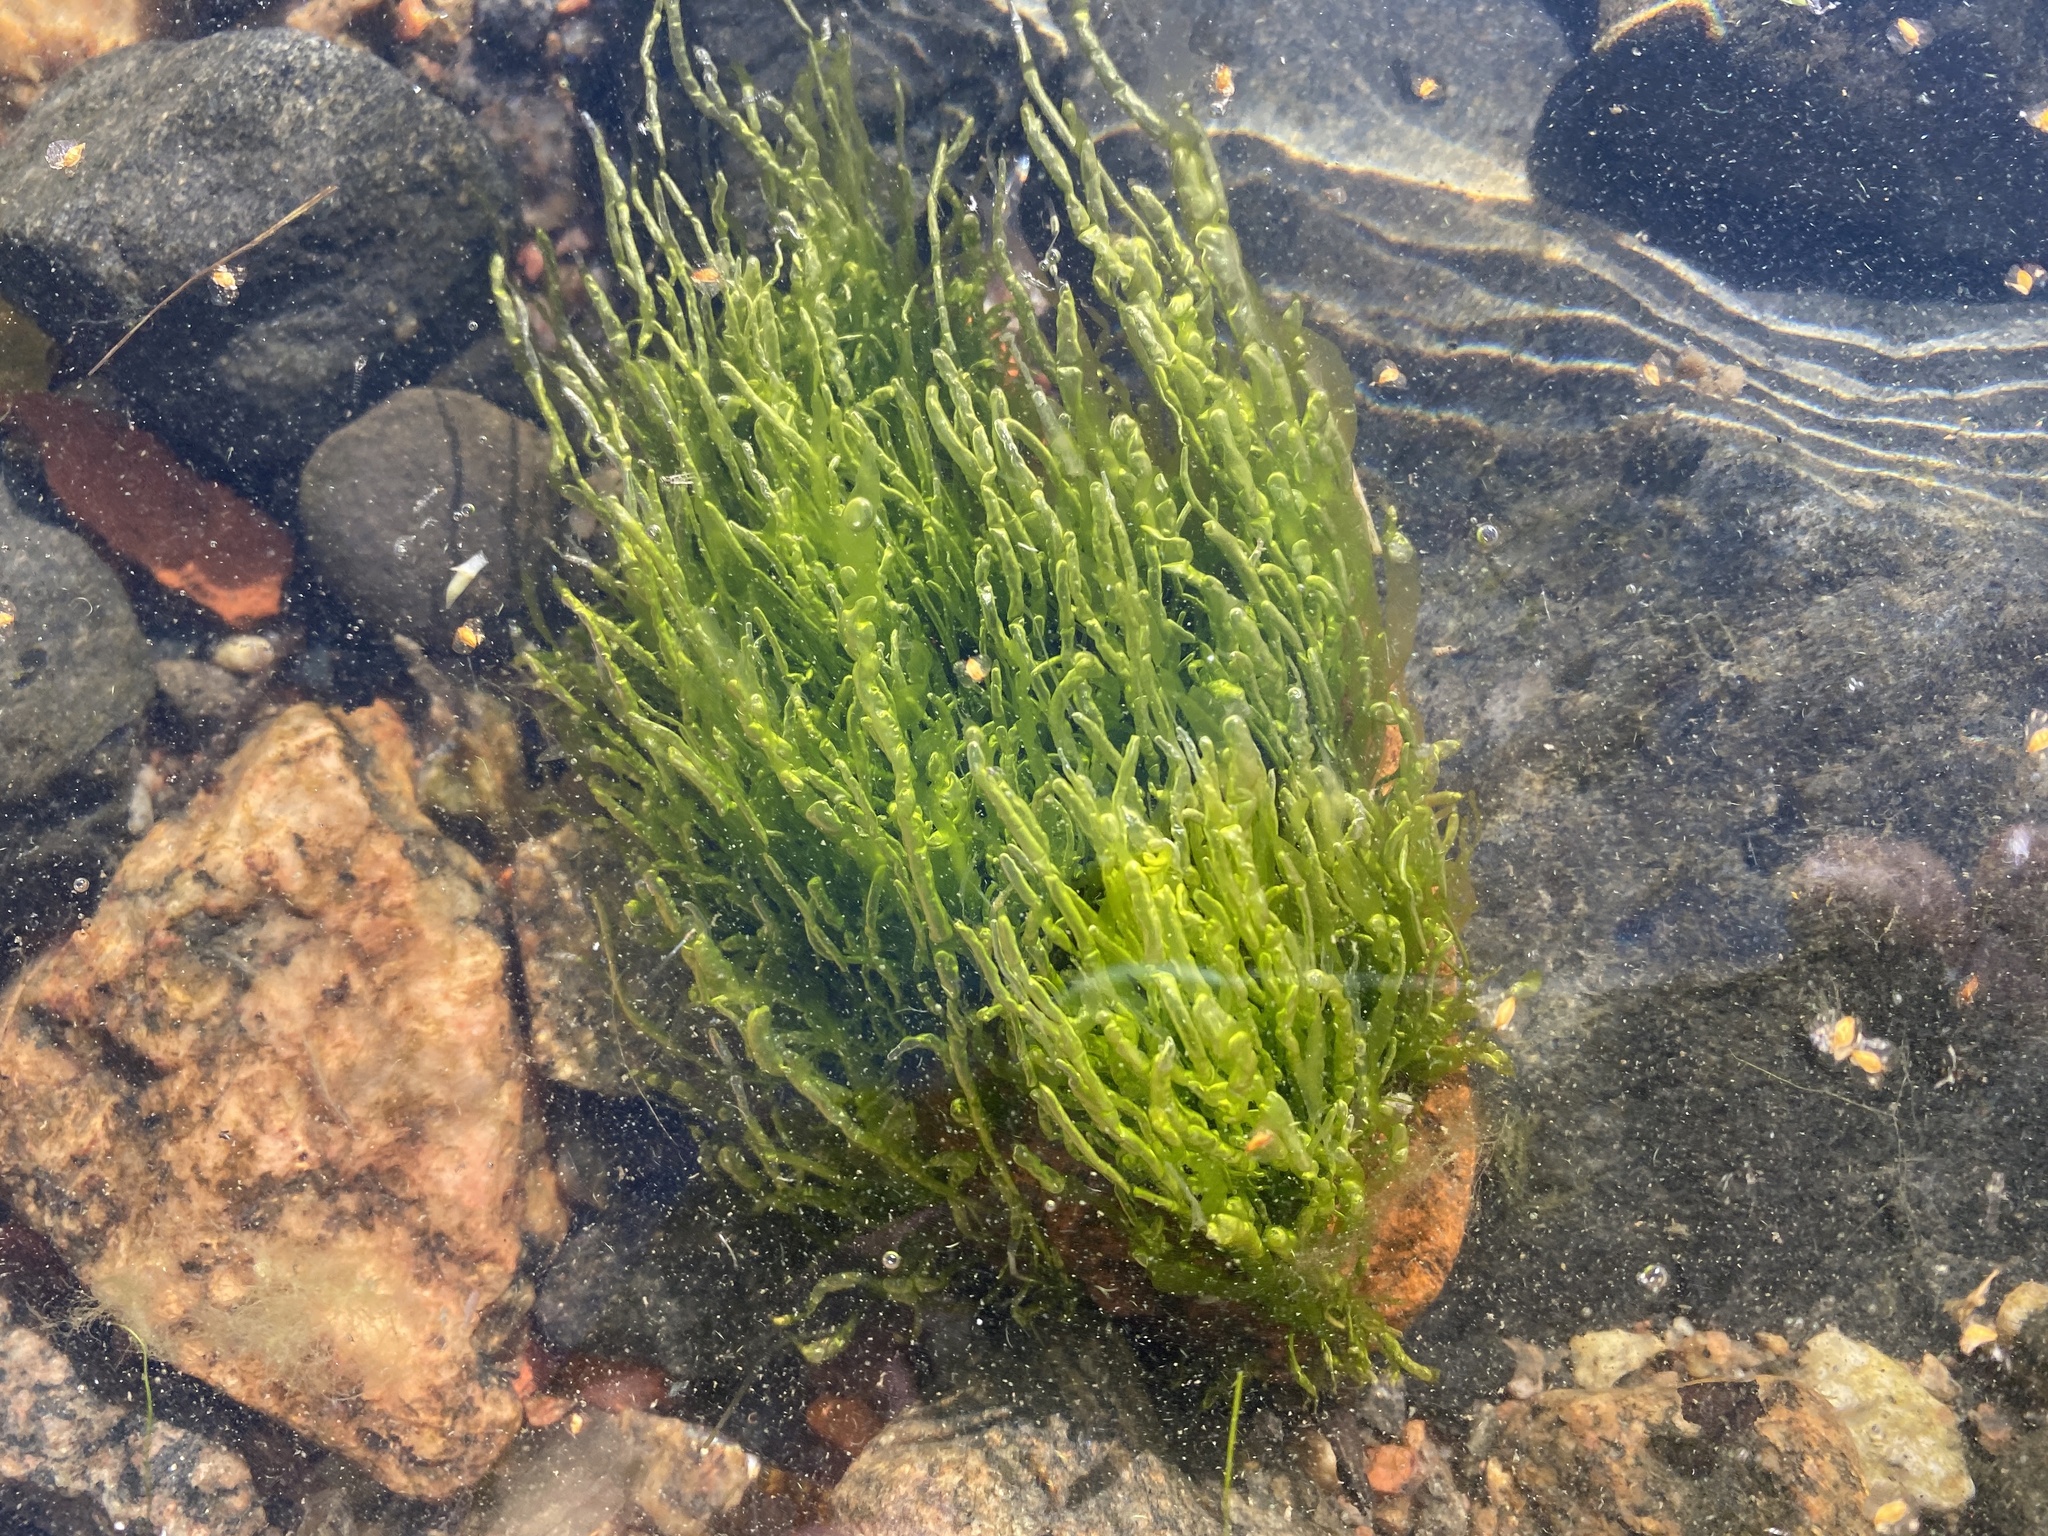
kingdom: Plantae
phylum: Chlorophyta
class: Ulvophyceae
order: Ulvales
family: Ulvaceae
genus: Ulva
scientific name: Ulva intestinalis
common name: Gut weed
